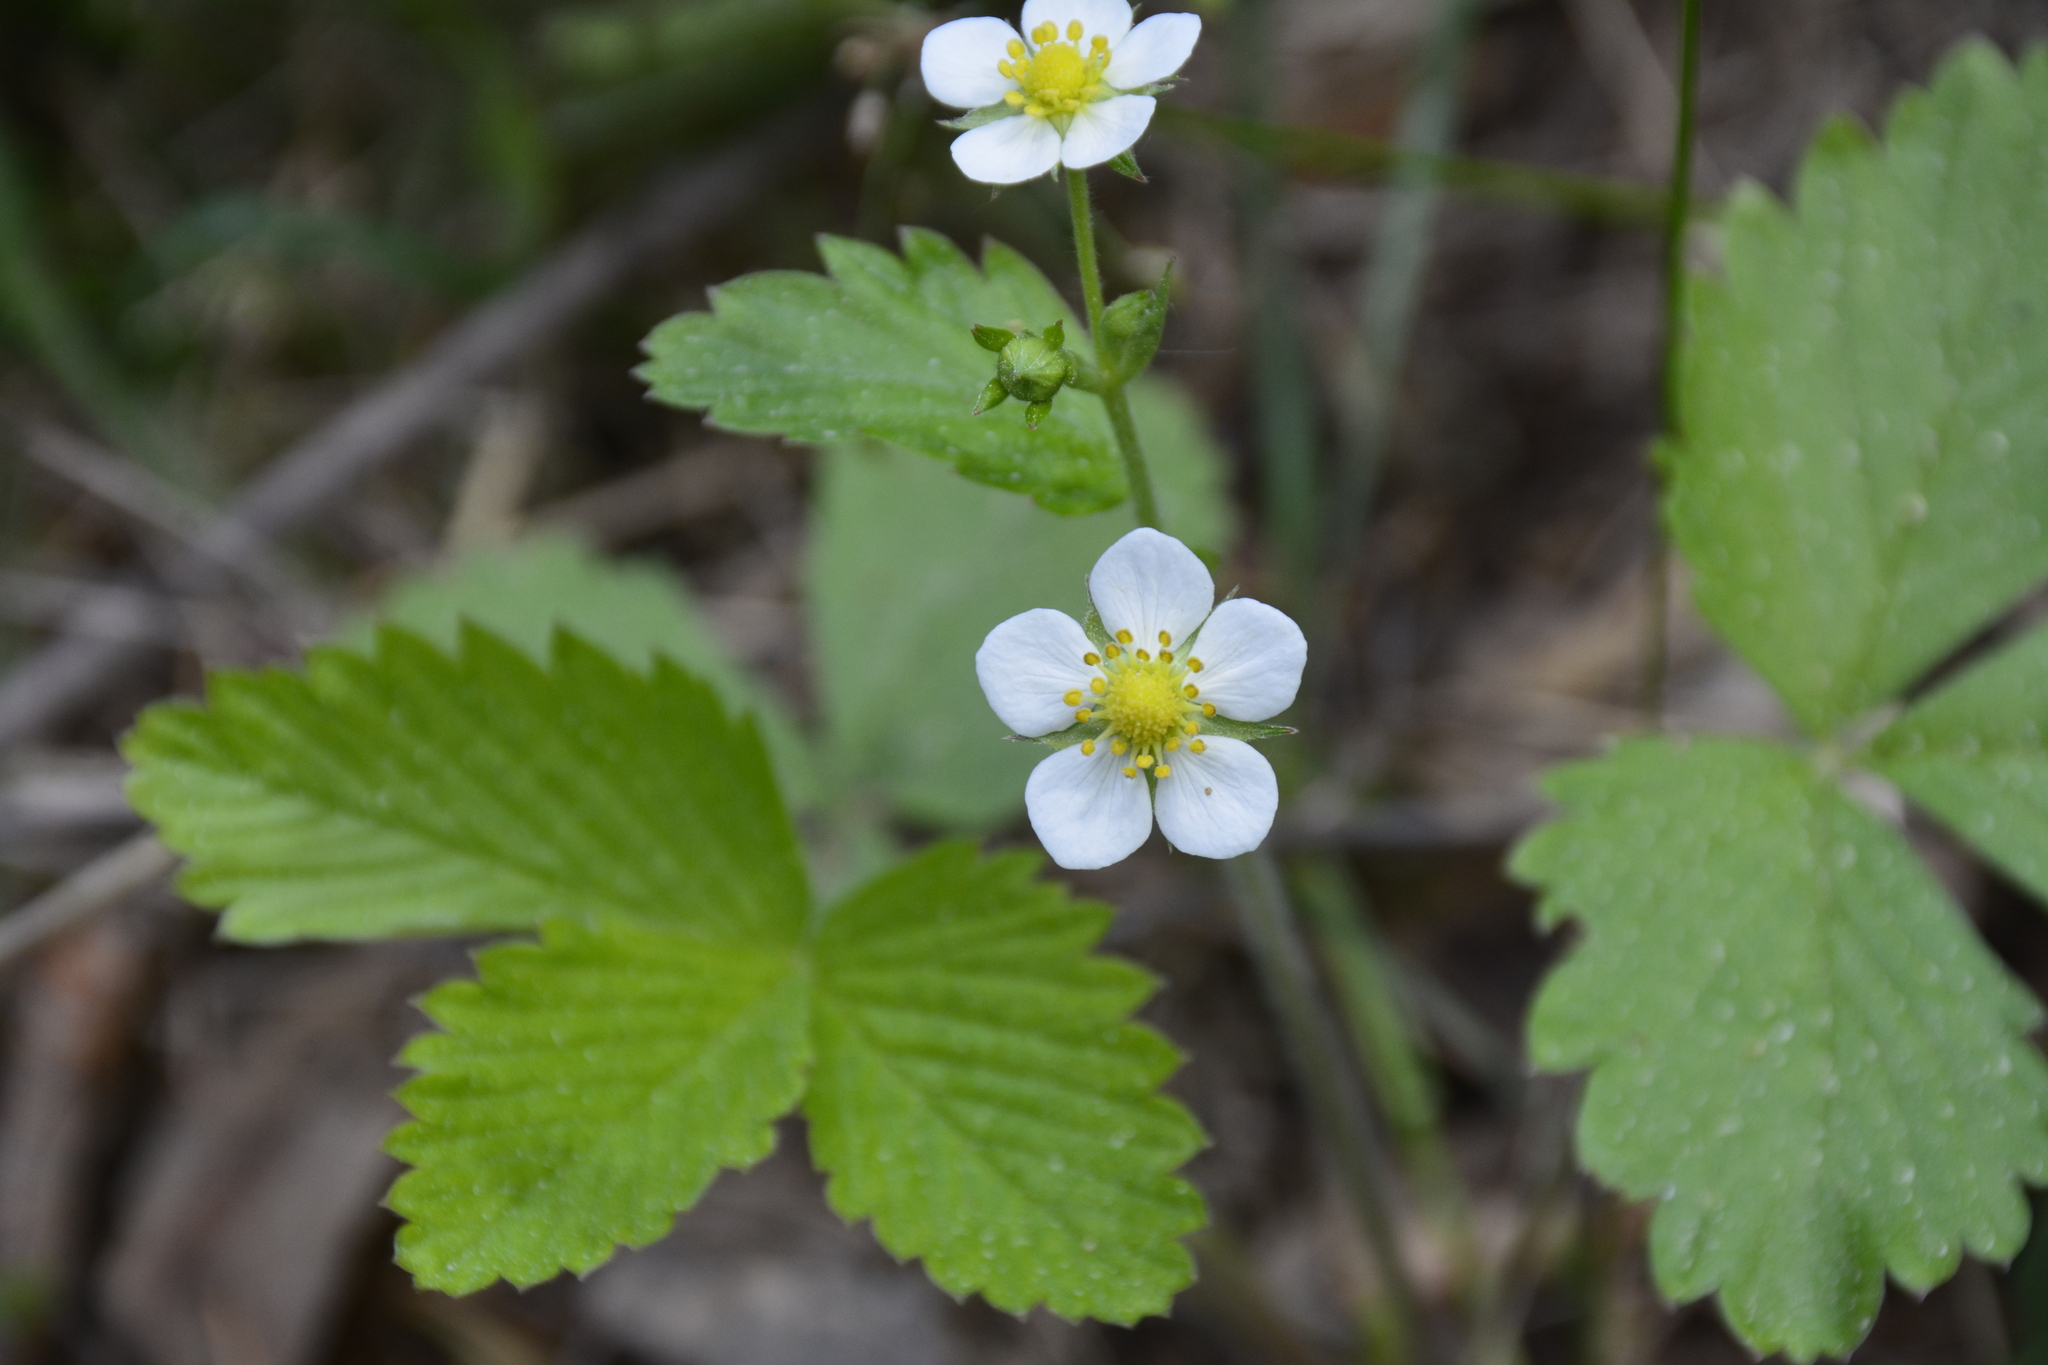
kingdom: Plantae
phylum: Tracheophyta
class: Magnoliopsida
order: Rosales
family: Rosaceae
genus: Fragaria
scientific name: Fragaria vesca
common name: Wild strawberry
